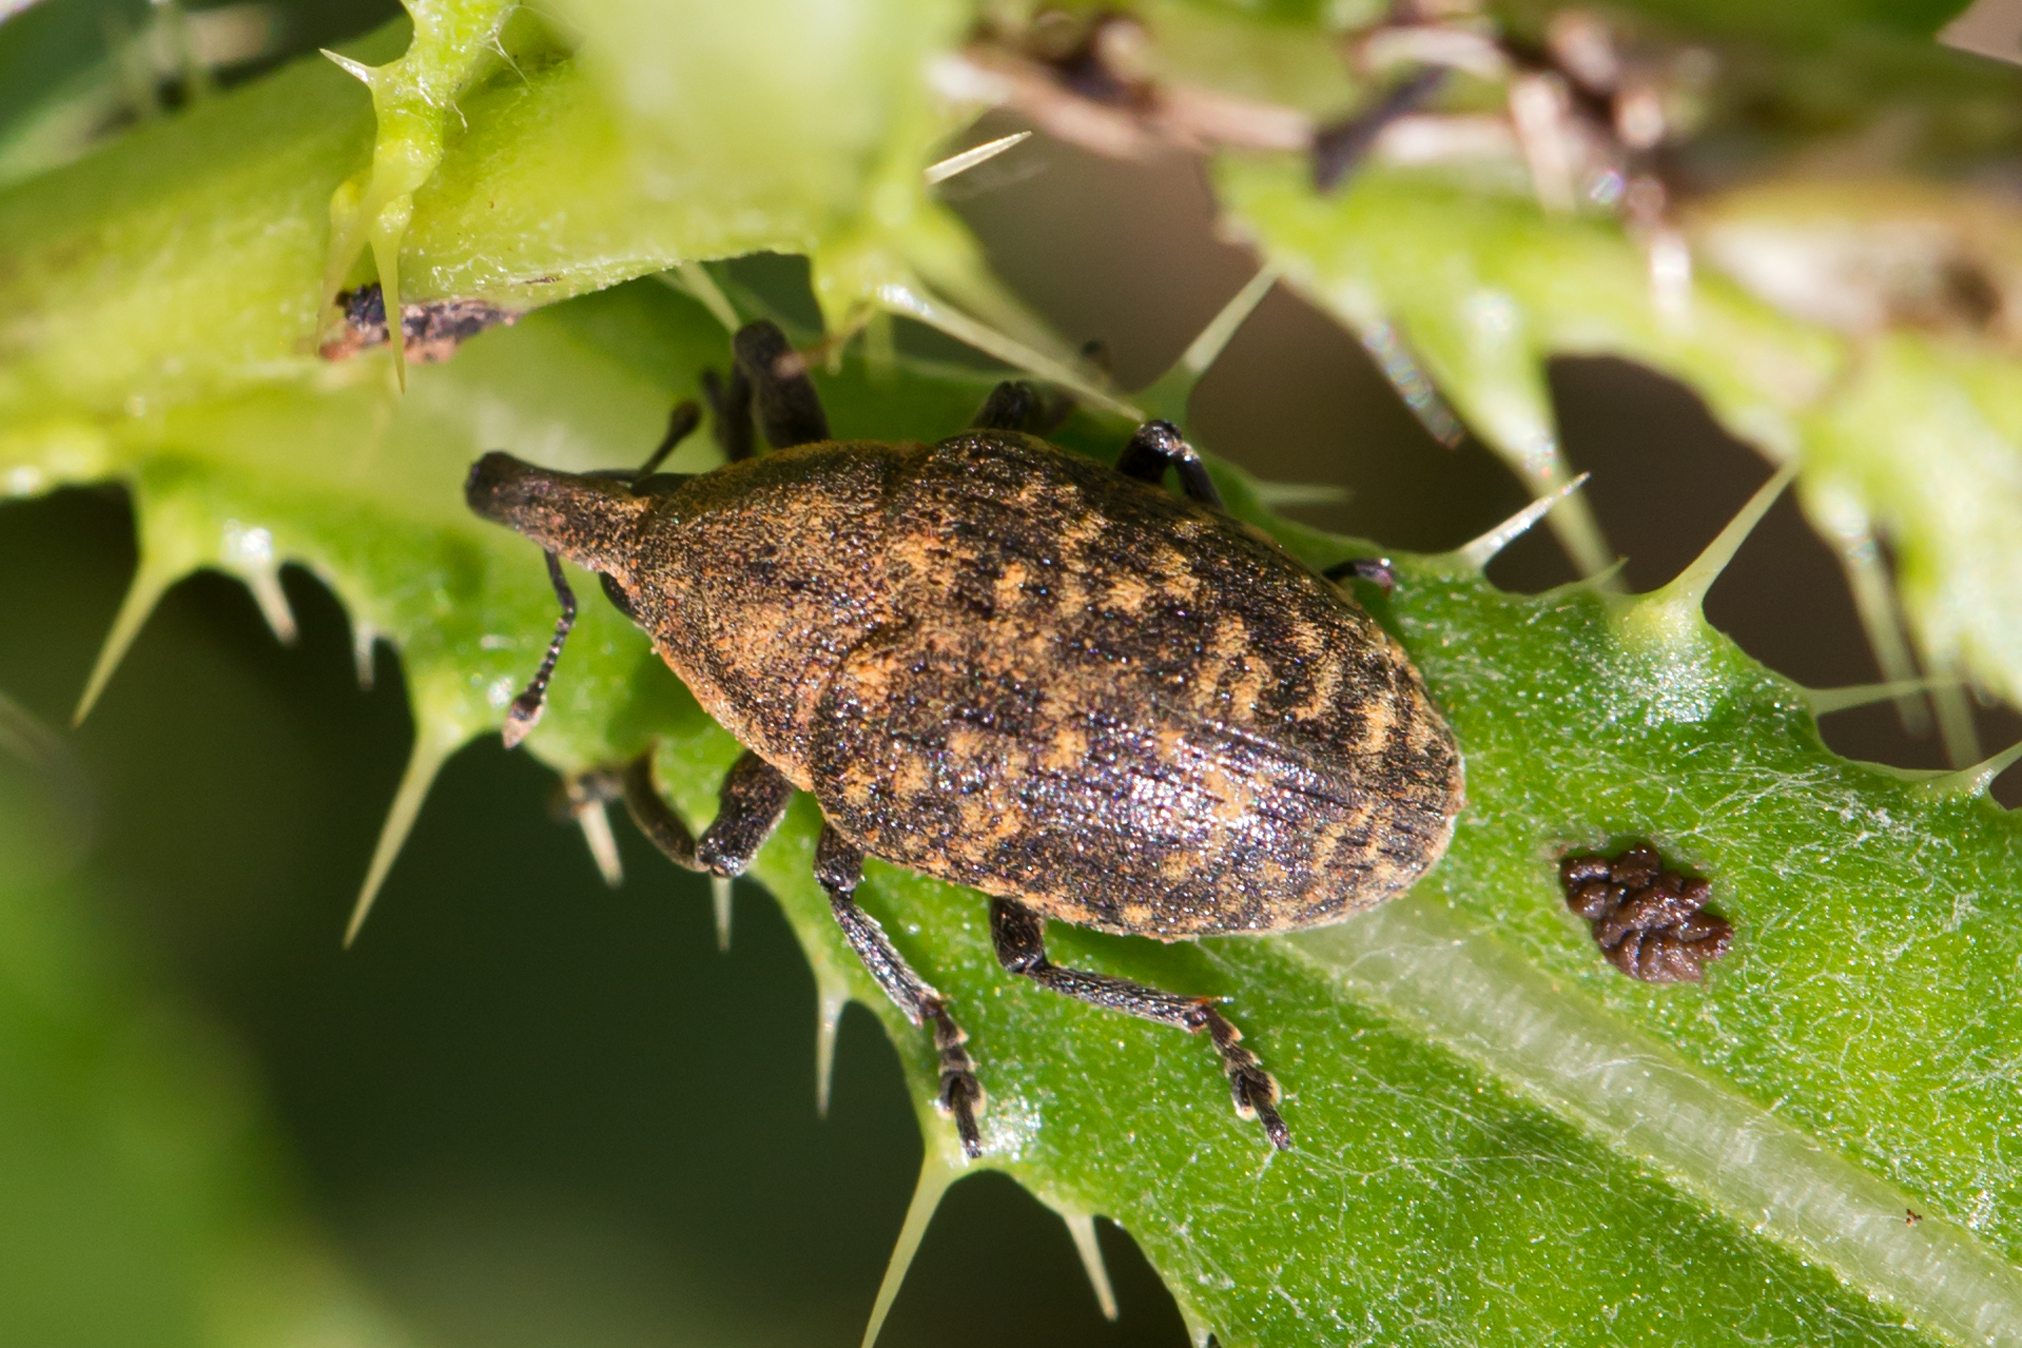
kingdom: Animalia
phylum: Arthropoda
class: Insecta
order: Coleoptera
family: Curculionidae
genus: Larinus
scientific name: Larinus turbinatus
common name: Weevil
